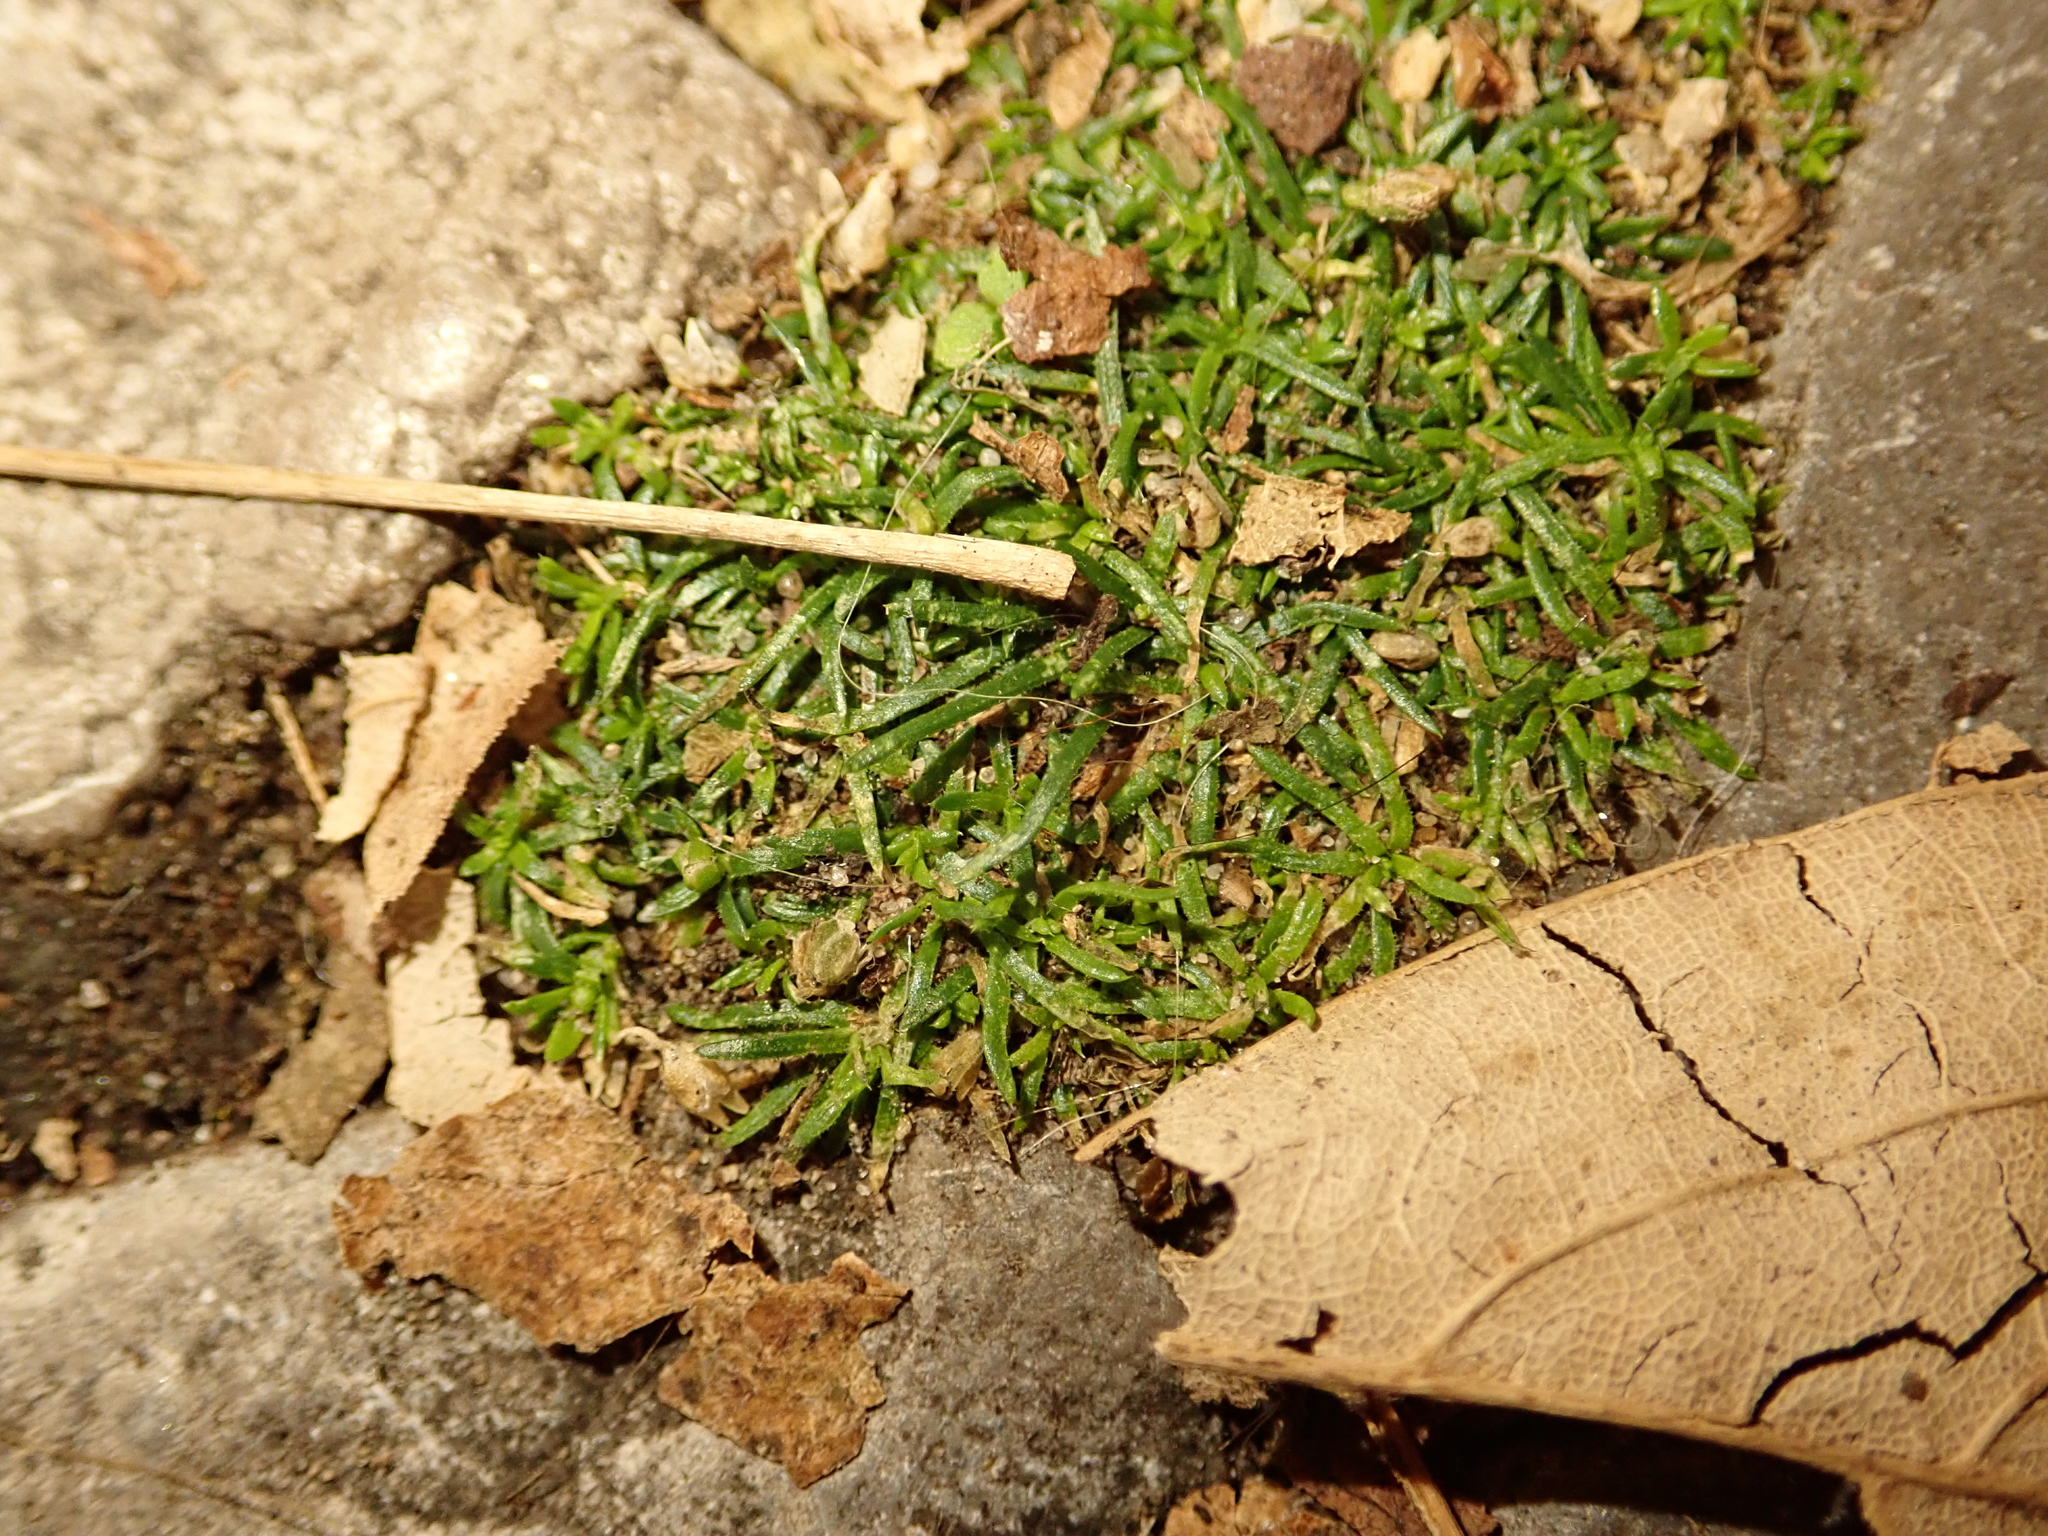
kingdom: Plantae
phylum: Tracheophyta
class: Magnoliopsida
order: Caryophyllales
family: Caryophyllaceae
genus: Sagina
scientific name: Sagina procumbens
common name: Procumbent pearlwort
